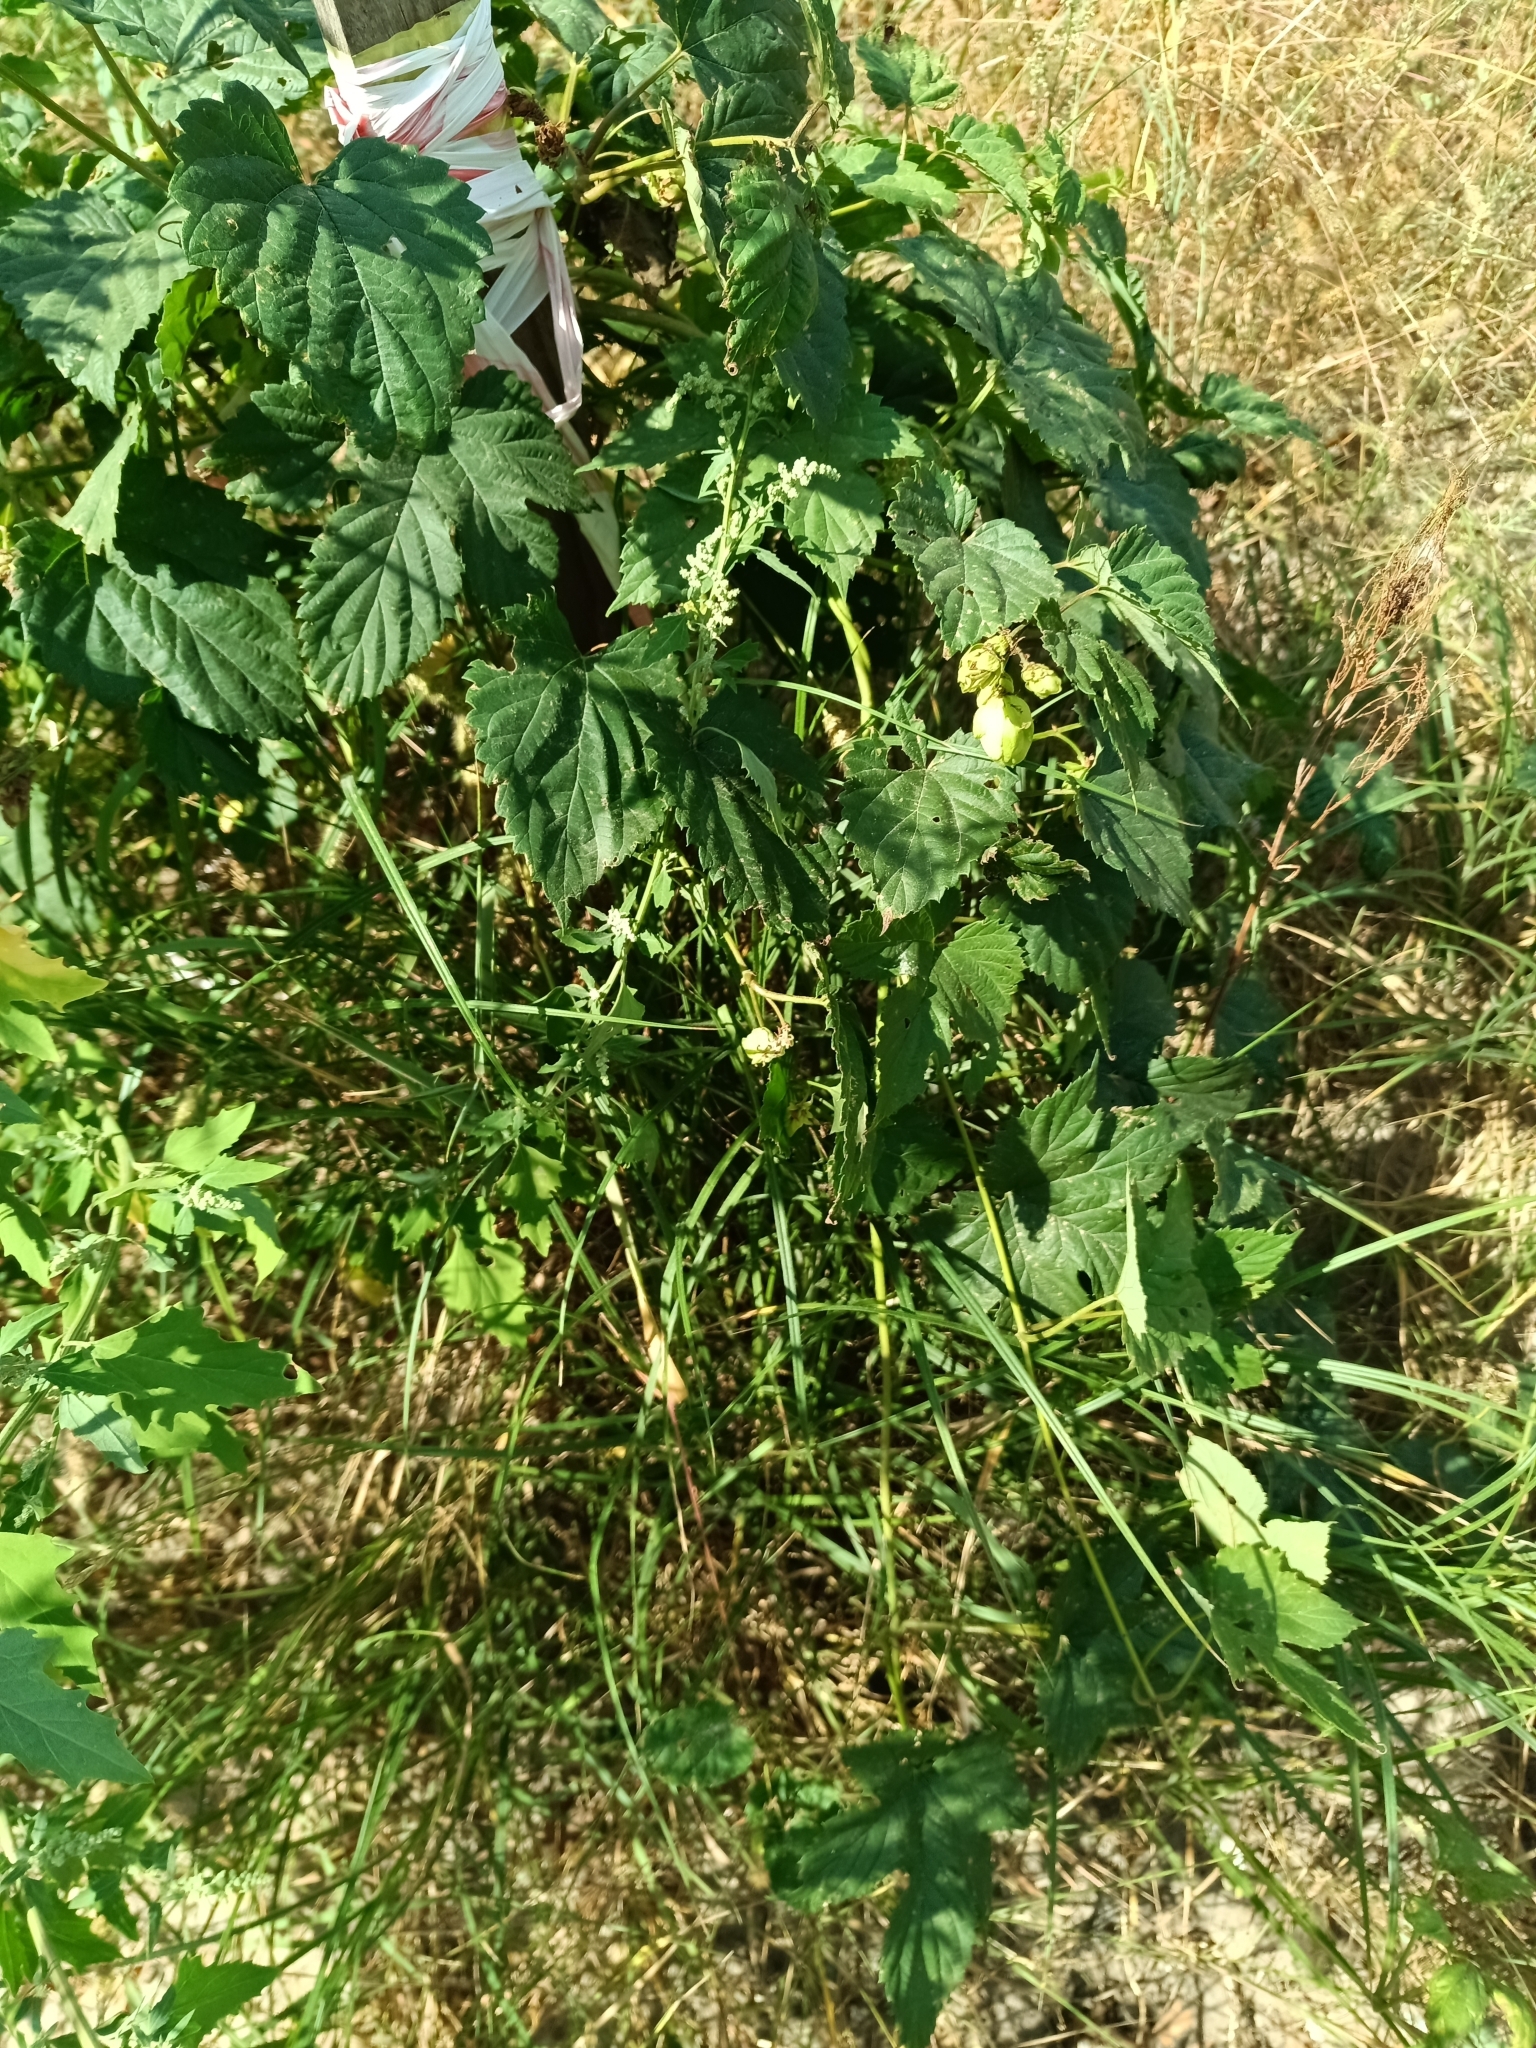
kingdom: Plantae
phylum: Tracheophyta
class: Magnoliopsida
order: Rosales
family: Cannabaceae
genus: Humulus
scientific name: Humulus lupulus
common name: Hop
